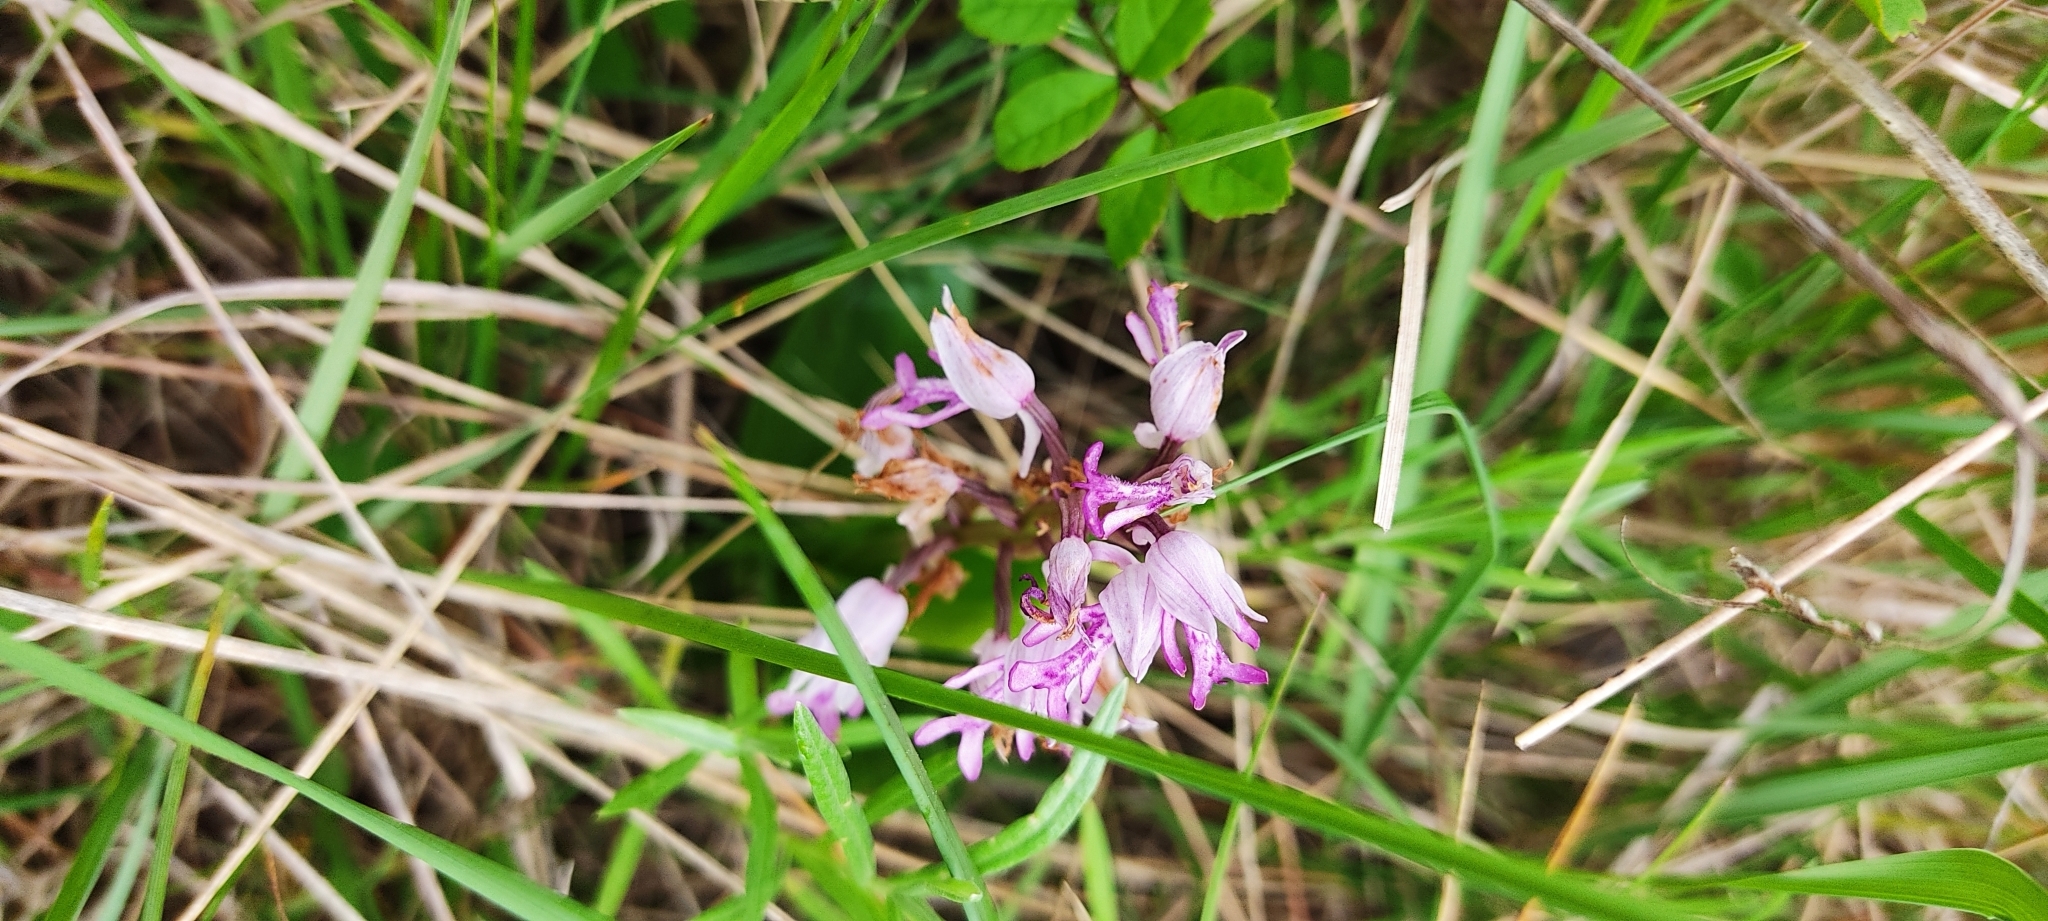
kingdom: Plantae
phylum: Tracheophyta
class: Liliopsida
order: Asparagales
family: Orchidaceae
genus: Orchis
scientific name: Orchis militaris
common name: Military orchid
